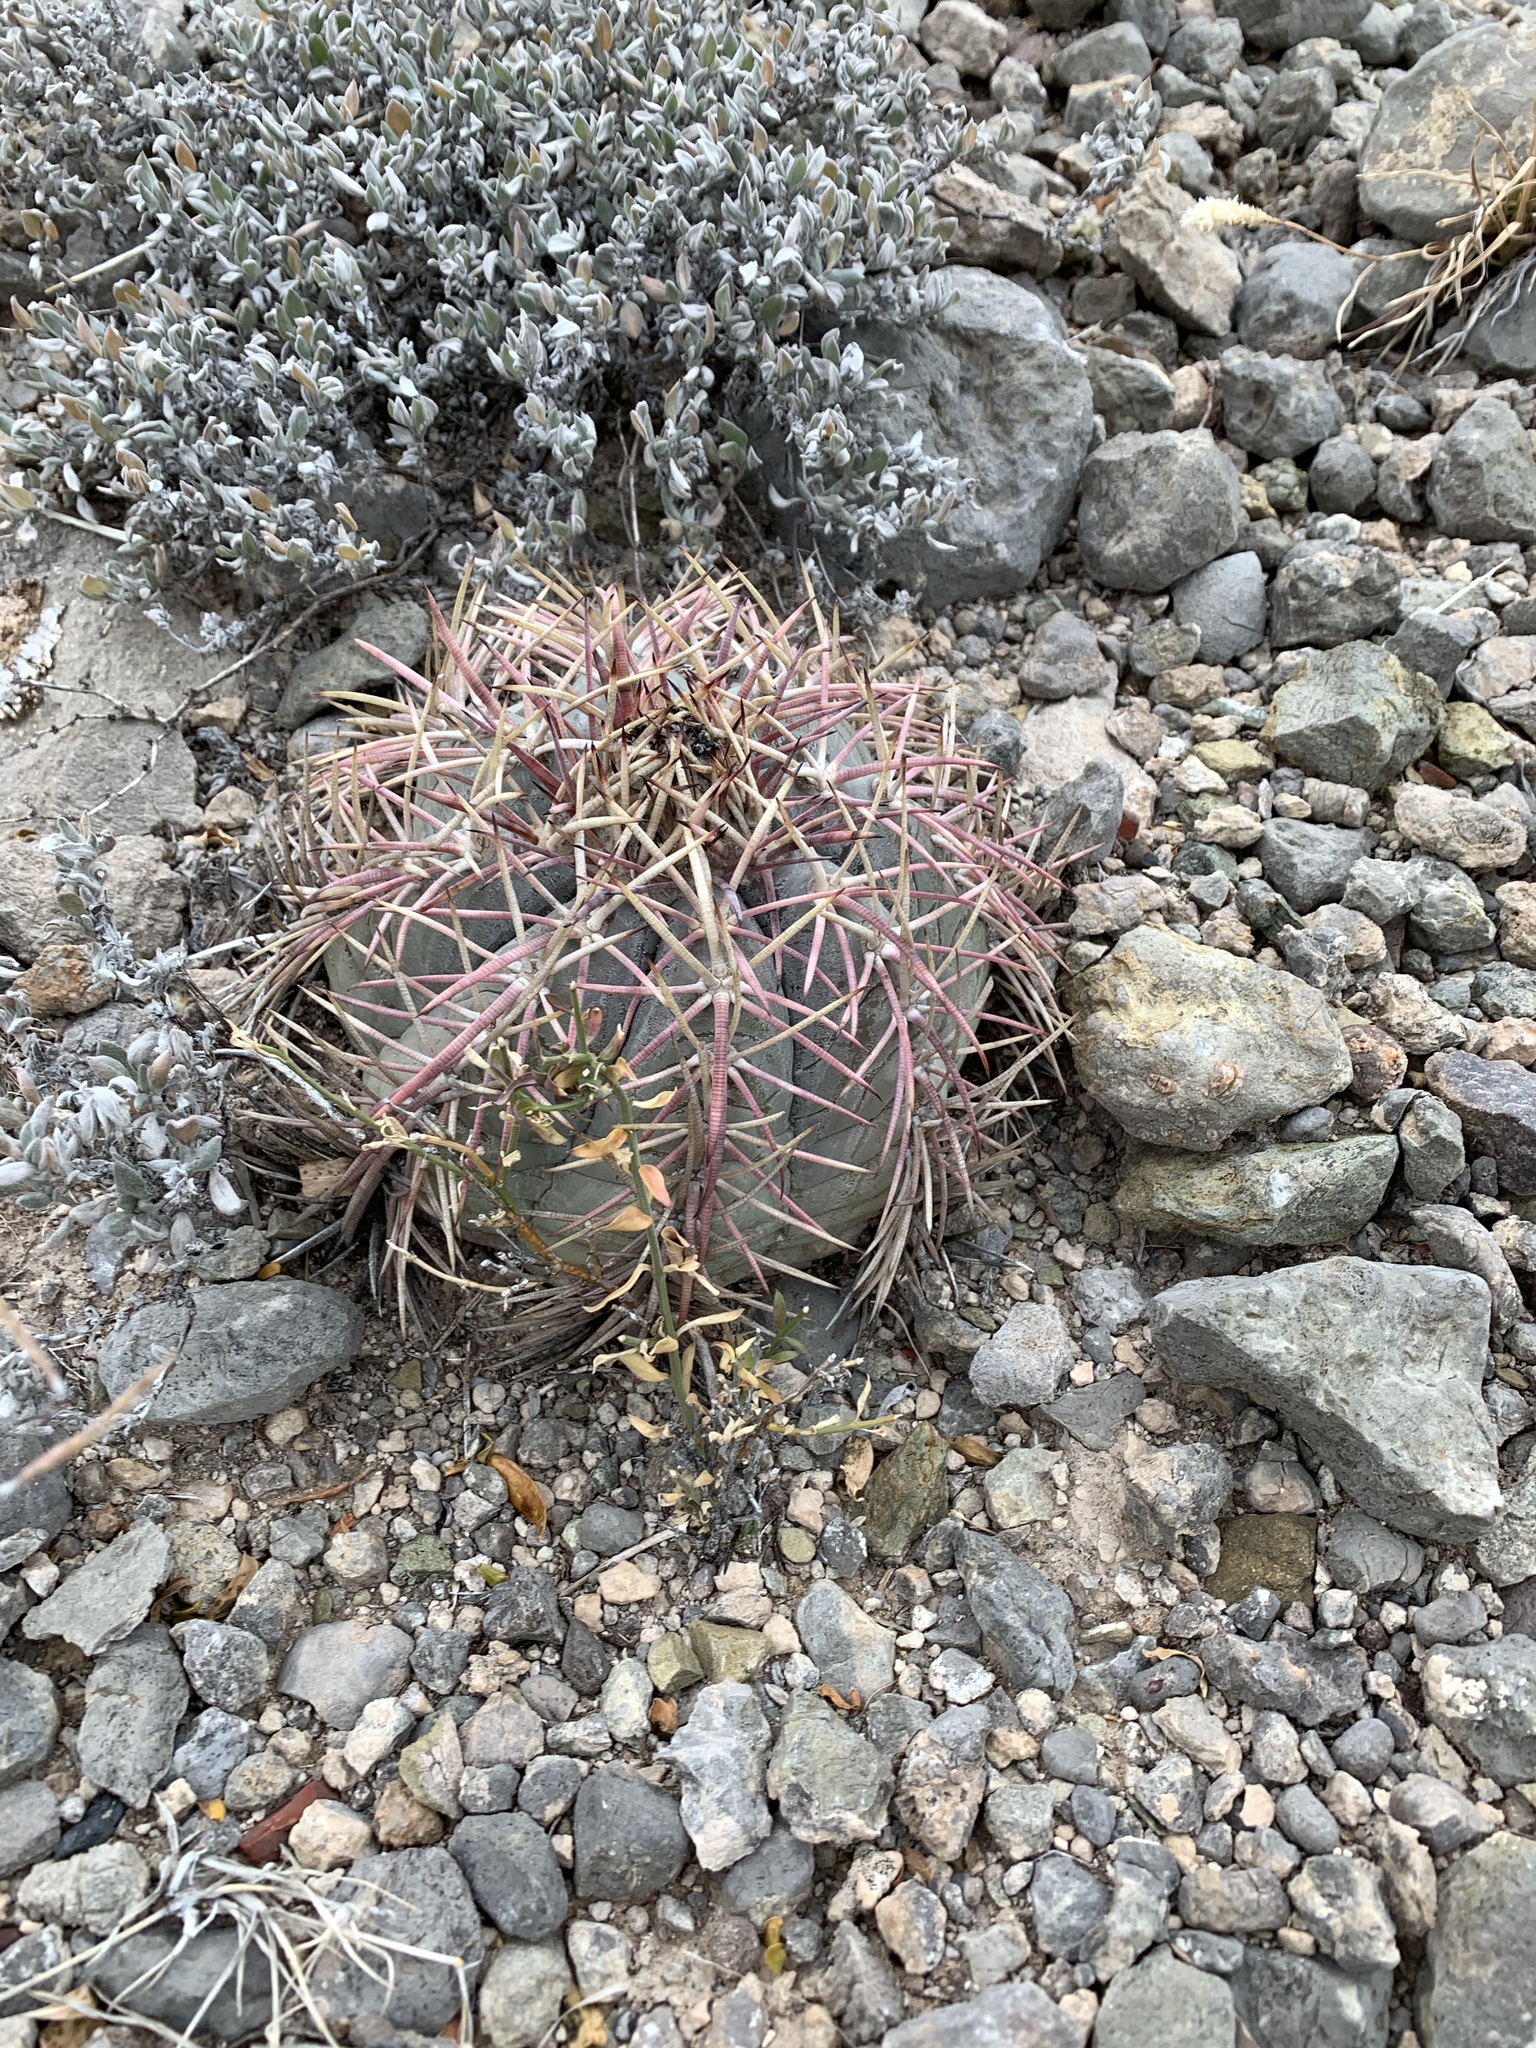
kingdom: Plantae
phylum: Tracheophyta
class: Magnoliopsida
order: Caryophyllales
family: Cactaceae
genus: Echinocactus
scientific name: Echinocactus horizonthalonius
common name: Devilshead
